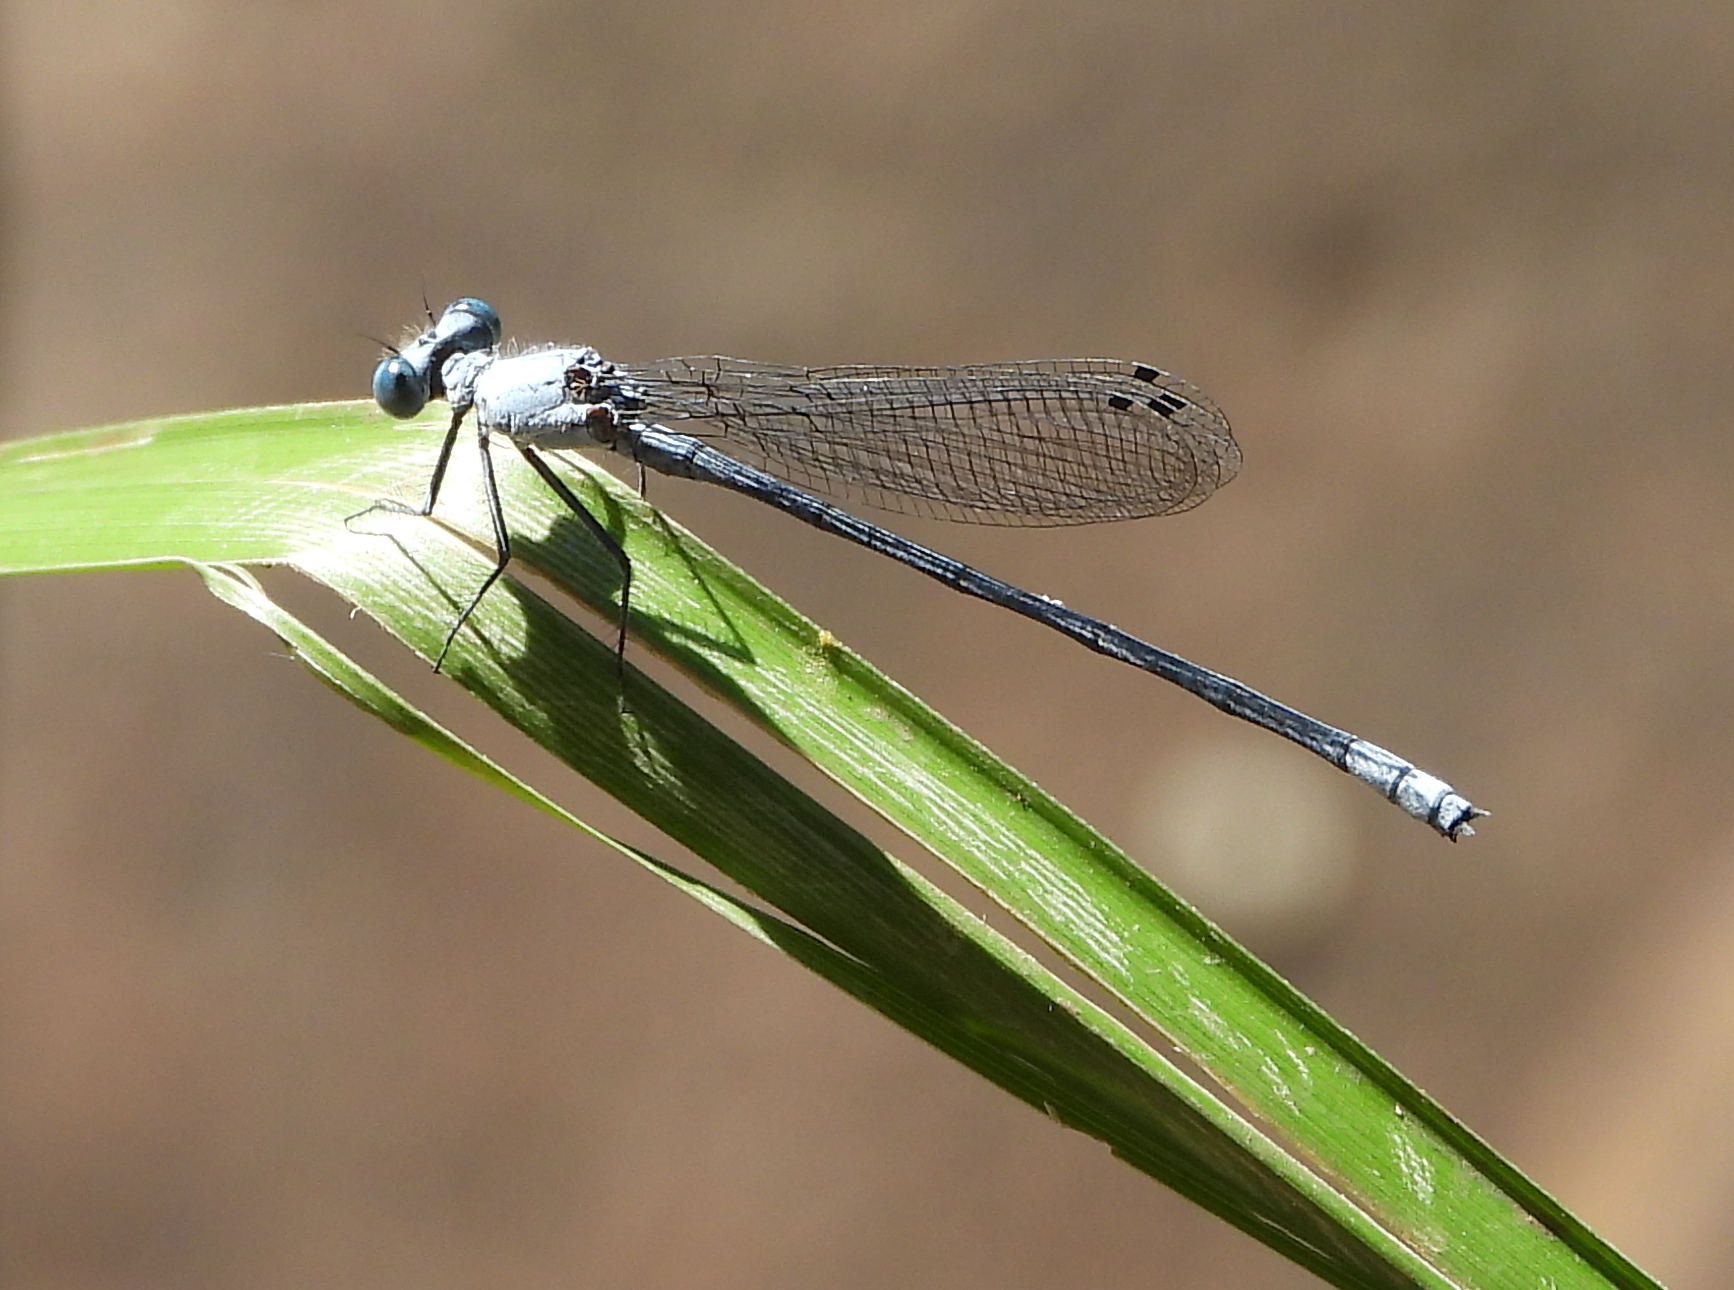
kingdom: Animalia
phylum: Arthropoda
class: Insecta
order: Odonata
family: Platycnemididae
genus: Mesocnemis
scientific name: Mesocnemis singularis
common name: Common riverjack
